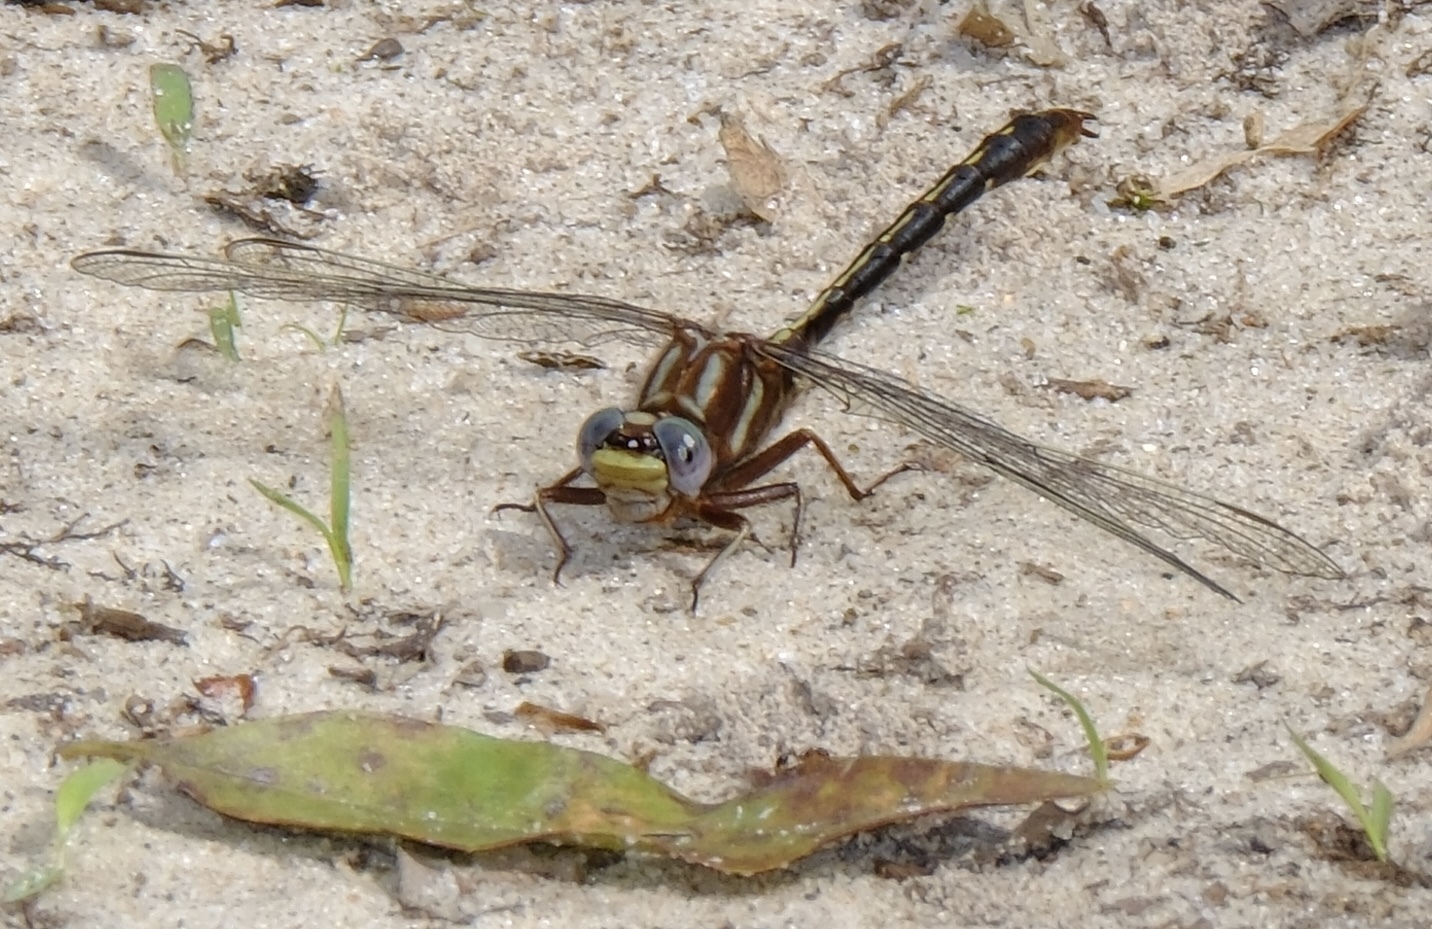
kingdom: Animalia
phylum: Arthropoda
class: Insecta
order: Odonata
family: Gomphidae
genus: Phanogomphus
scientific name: Phanogomphus lividus
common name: Ashy clubtail
